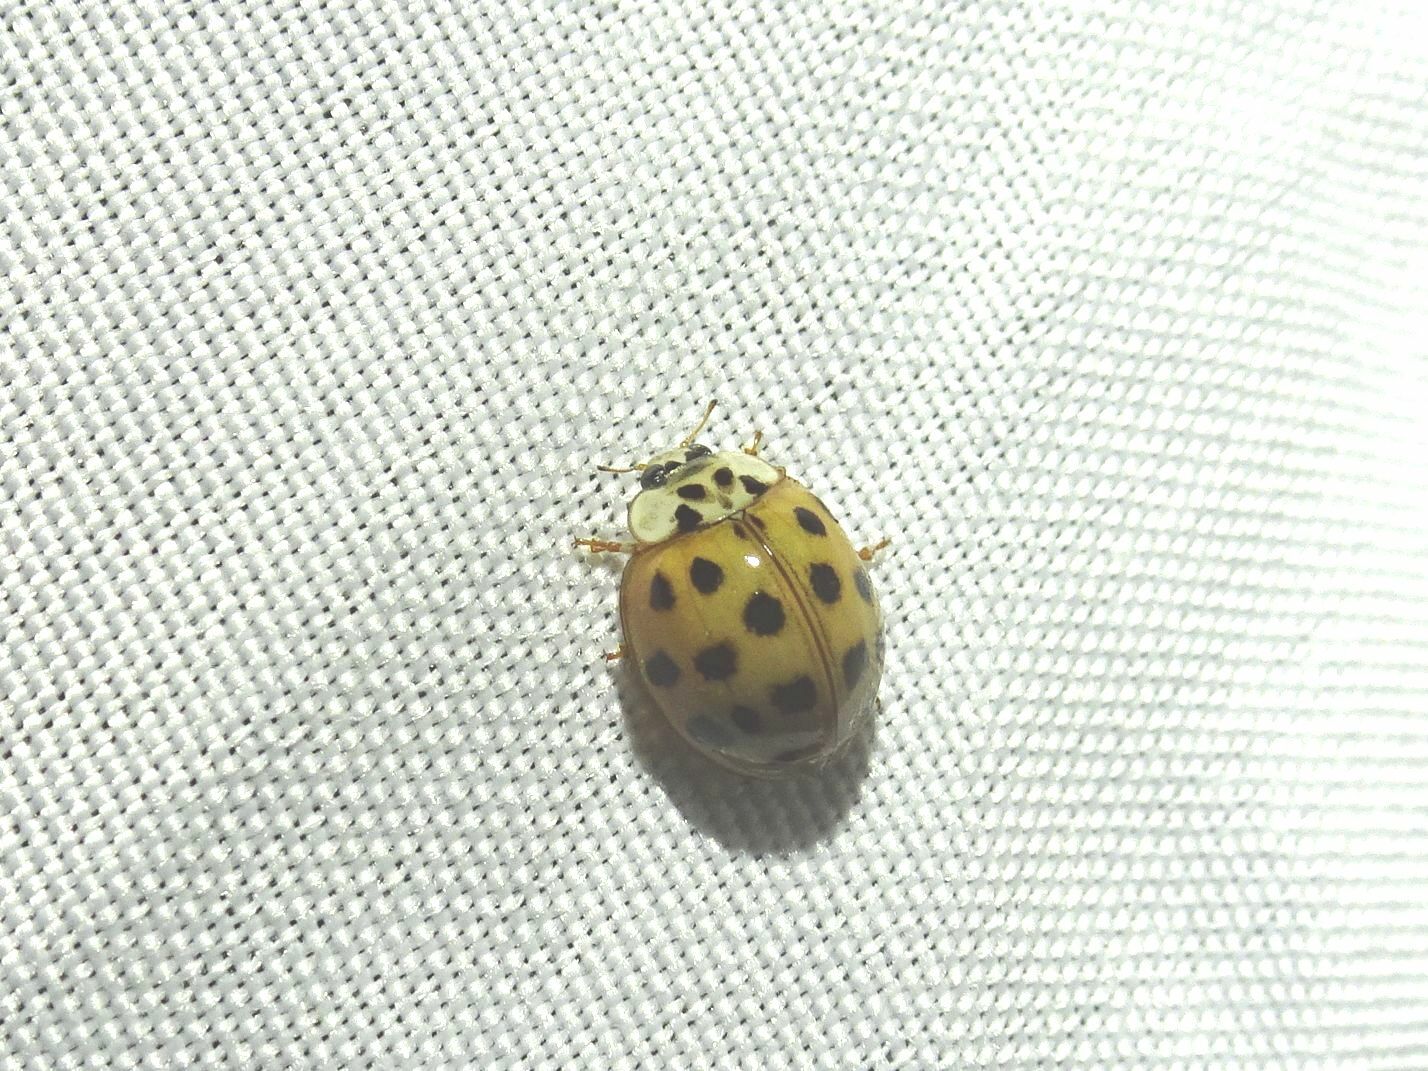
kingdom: Animalia
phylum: Arthropoda
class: Insecta
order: Coleoptera
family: Coccinellidae
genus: Harmonia
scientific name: Harmonia axyridis
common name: Harlequin ladybird
